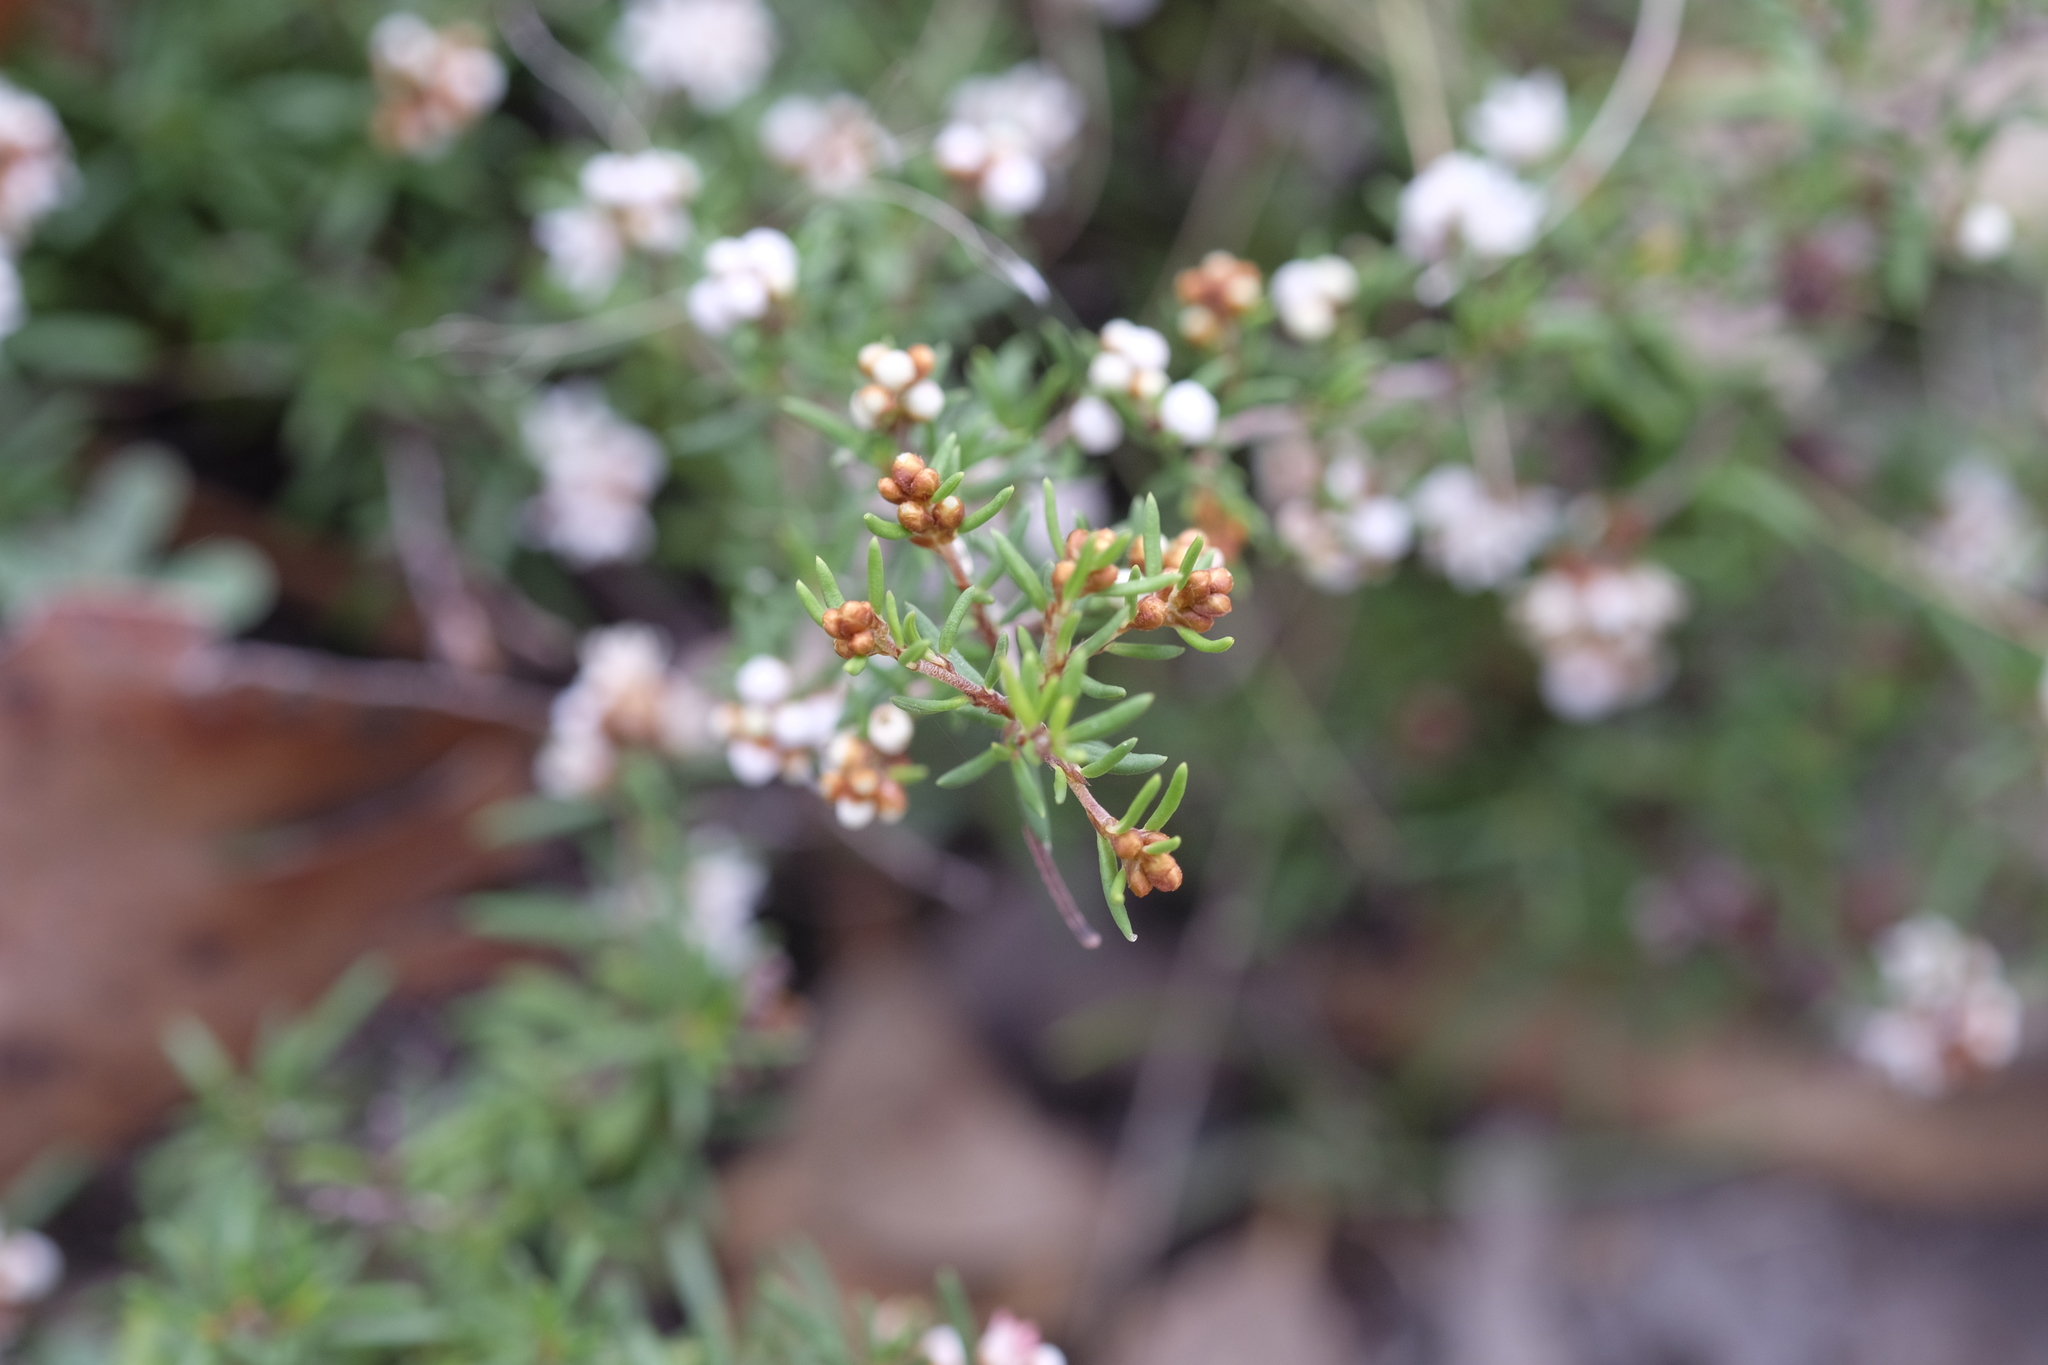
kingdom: Plantae
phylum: Tracheophyta
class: Magnoliopsida
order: Rosales
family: Rhamnaceae
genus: Cryptandra
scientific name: Cryptandra tomentosa
